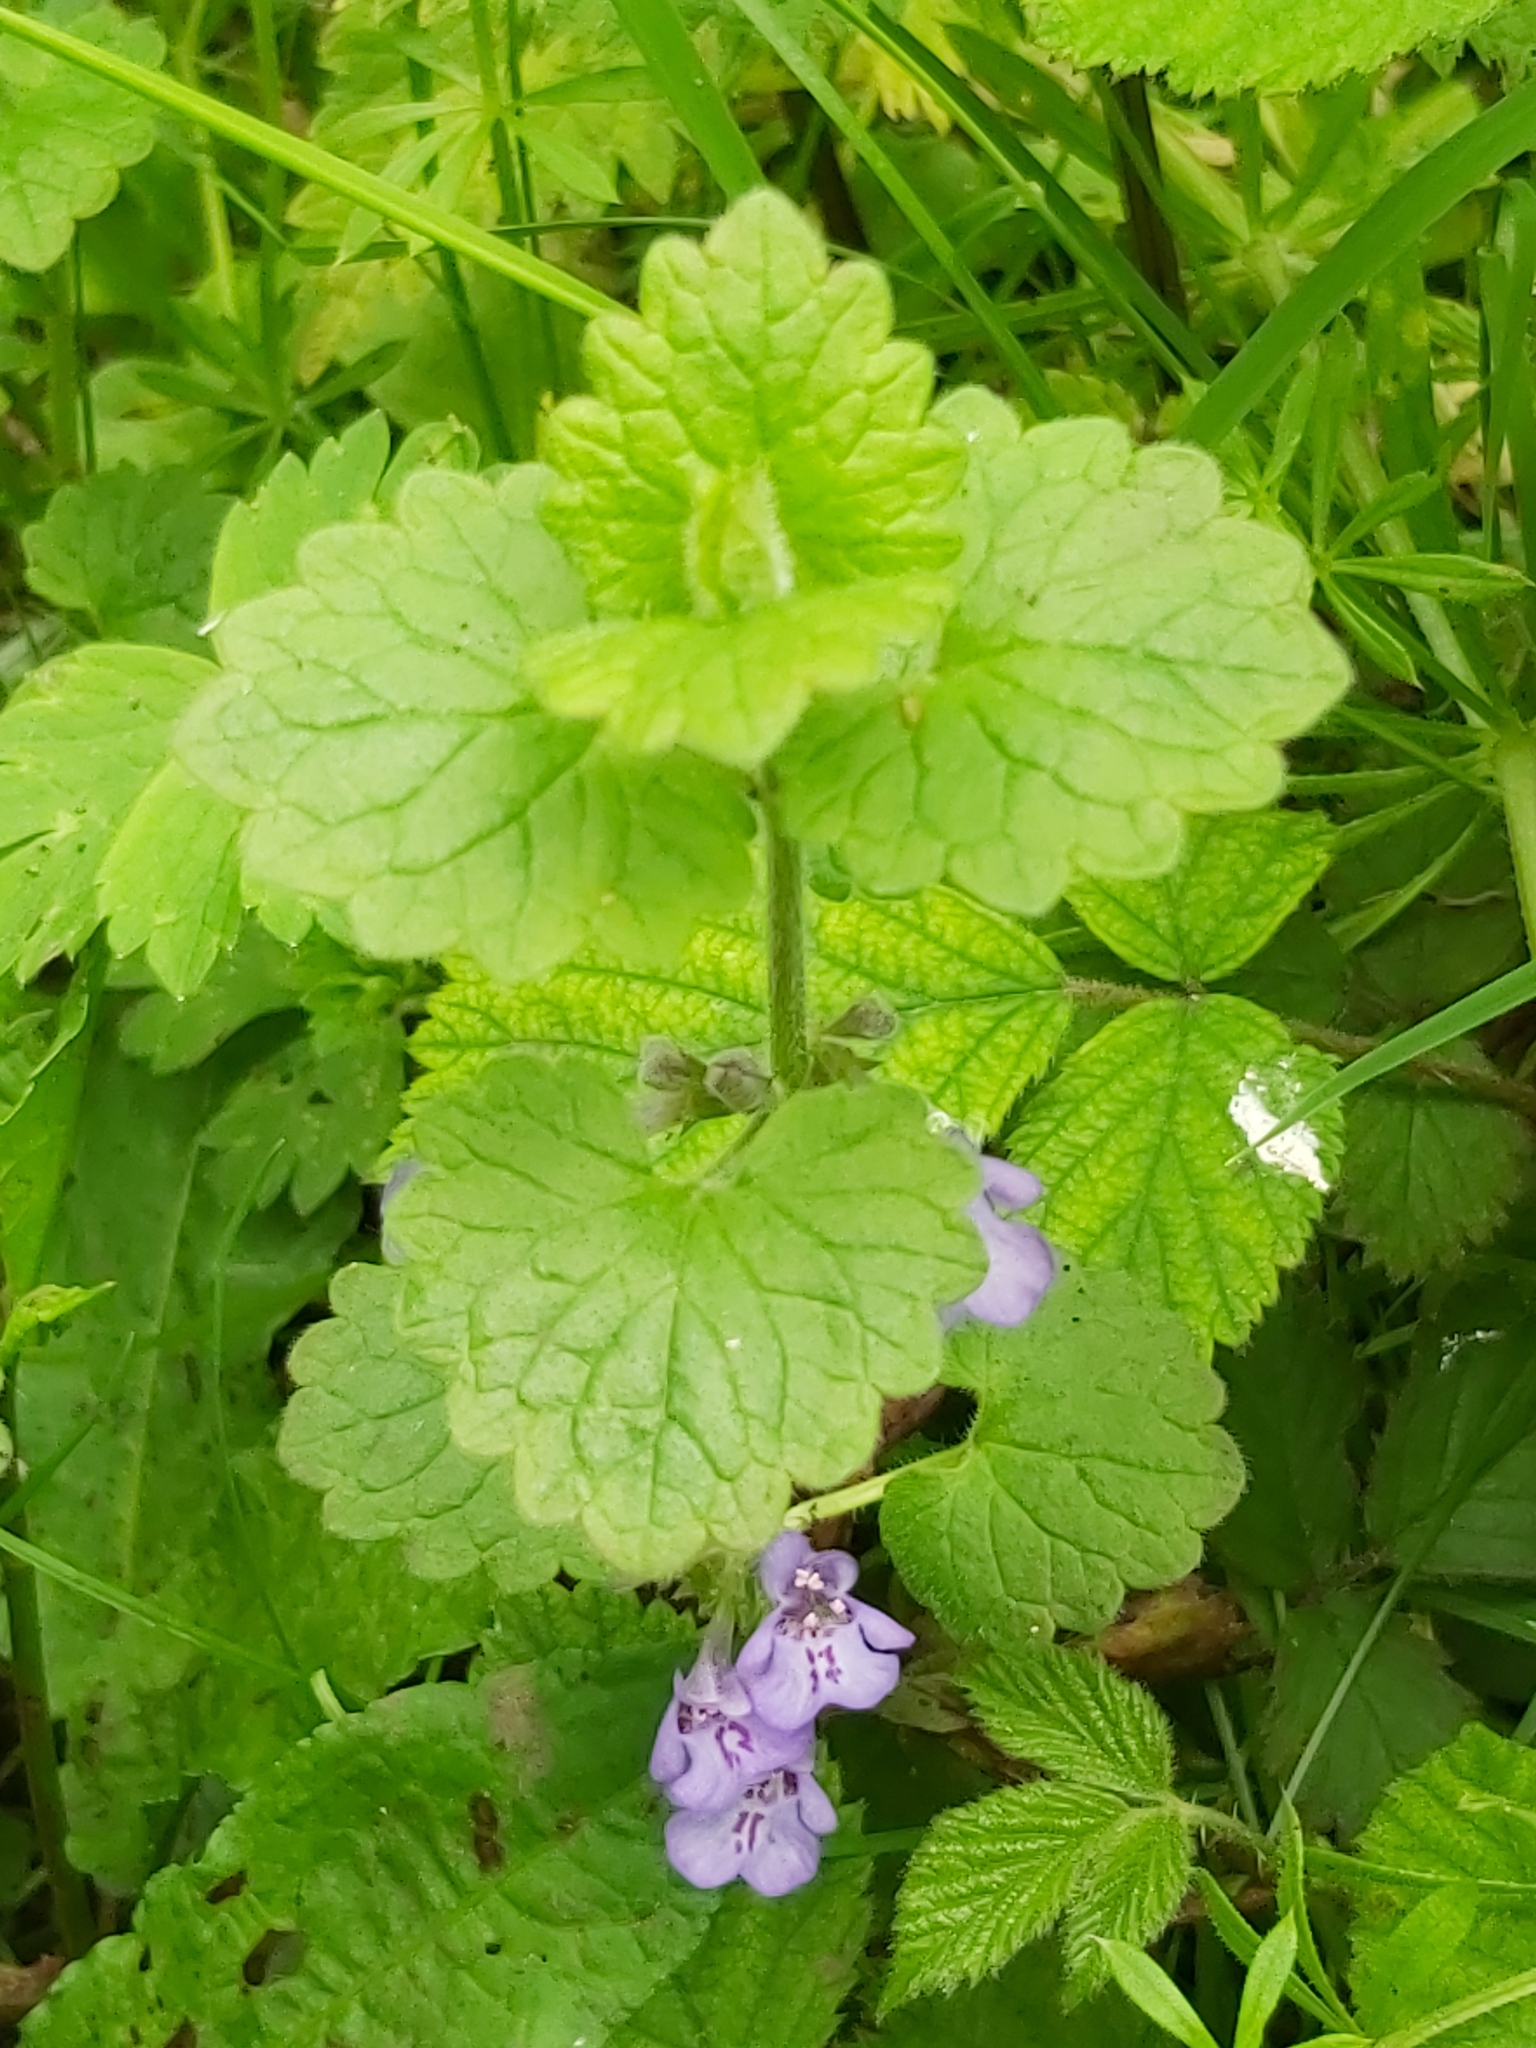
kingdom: Plantae
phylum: Tracheophyta
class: Magnoliopsida
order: Lamiales
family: Lamiaceae
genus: Glechoma
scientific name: Glechoma hederacea
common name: Ground ivy
